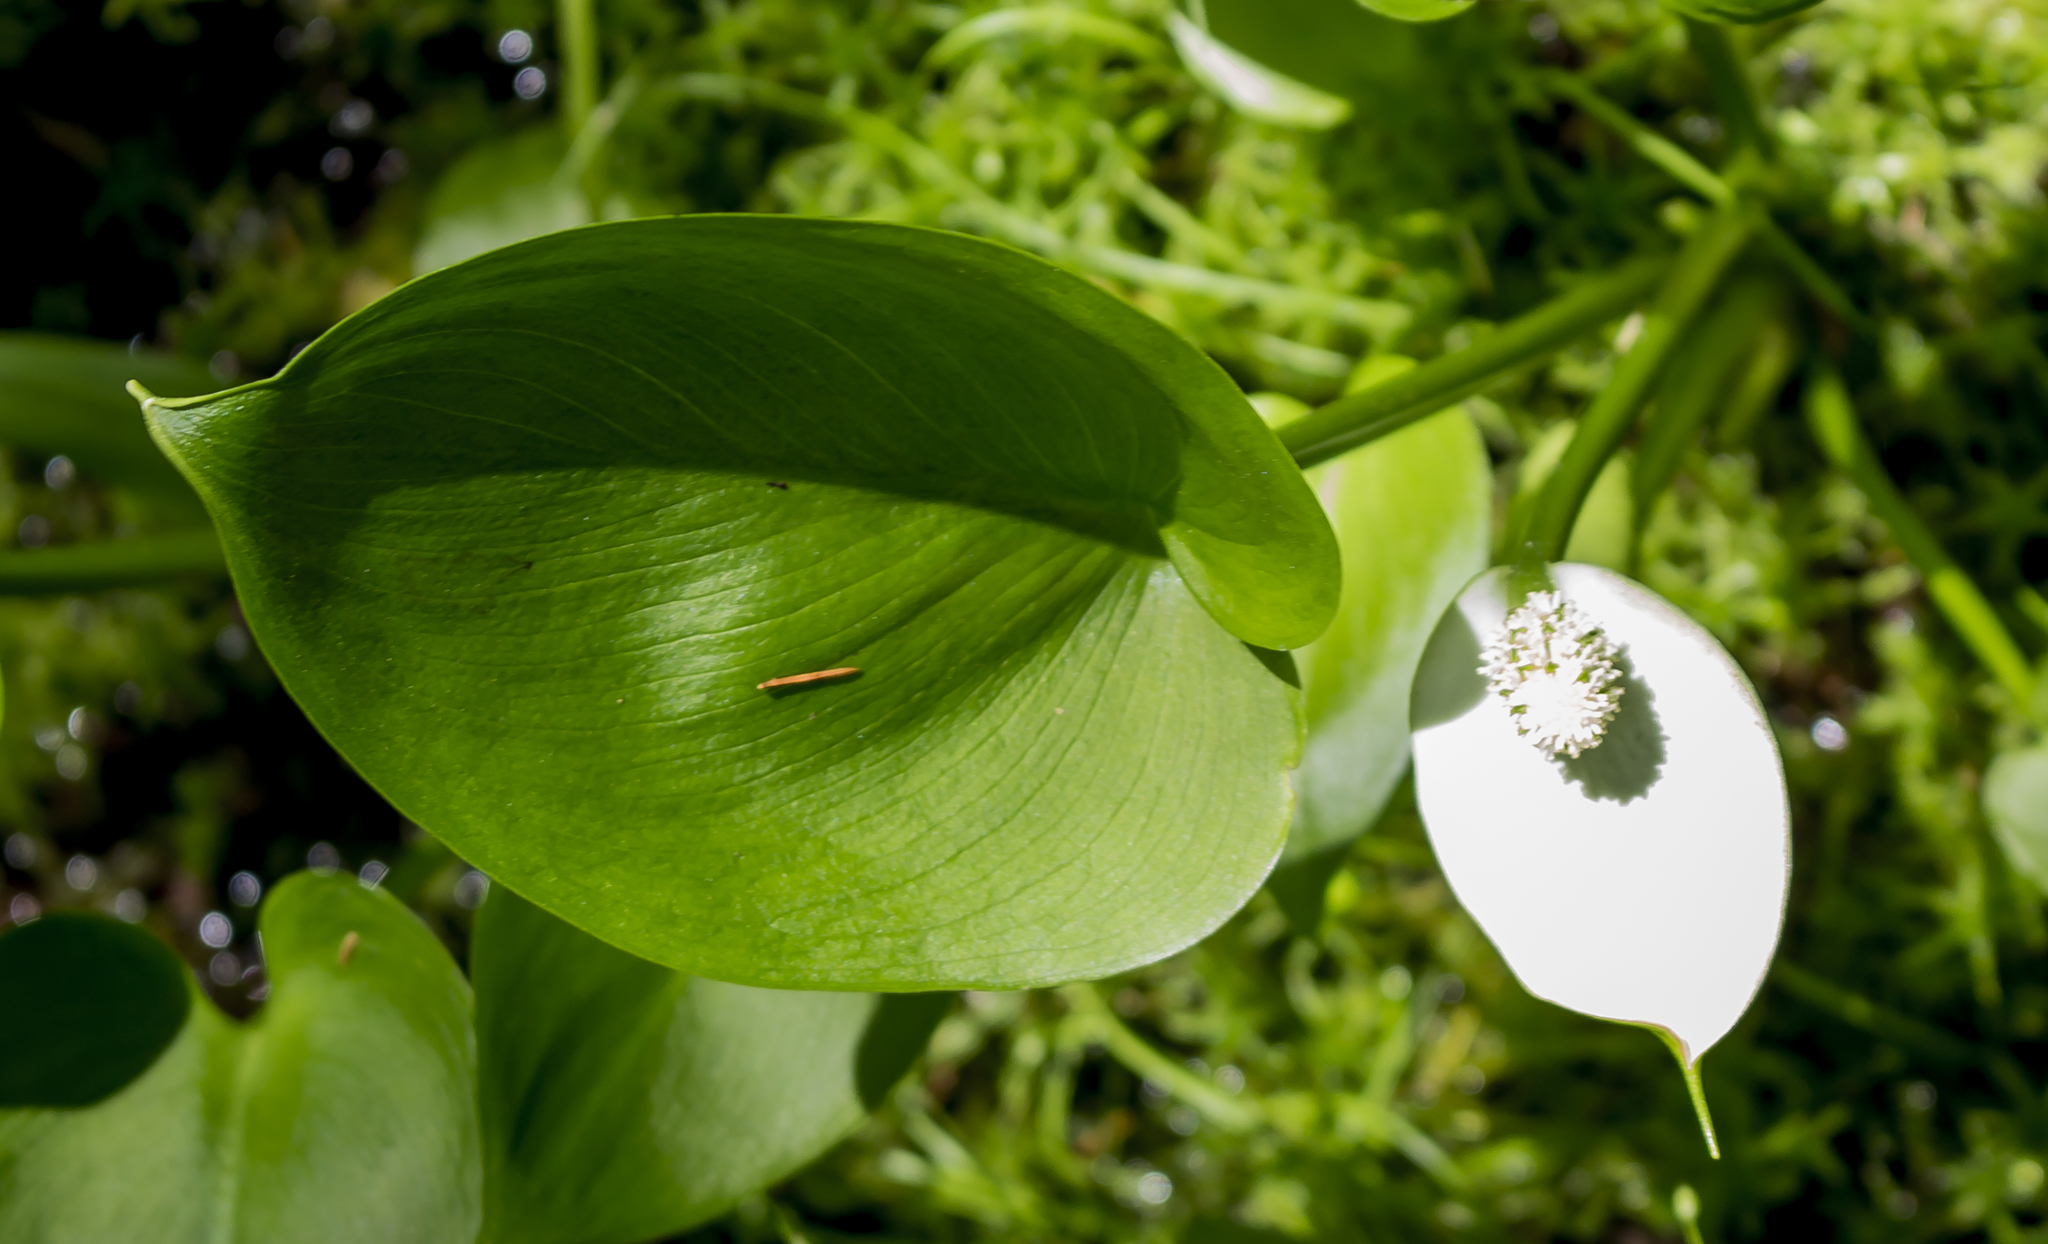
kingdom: Plantae
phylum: Tracheophyta
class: Liliopsida
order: Alismatales
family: Araceae
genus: Calla
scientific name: Calla palustris
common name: Bog arum
